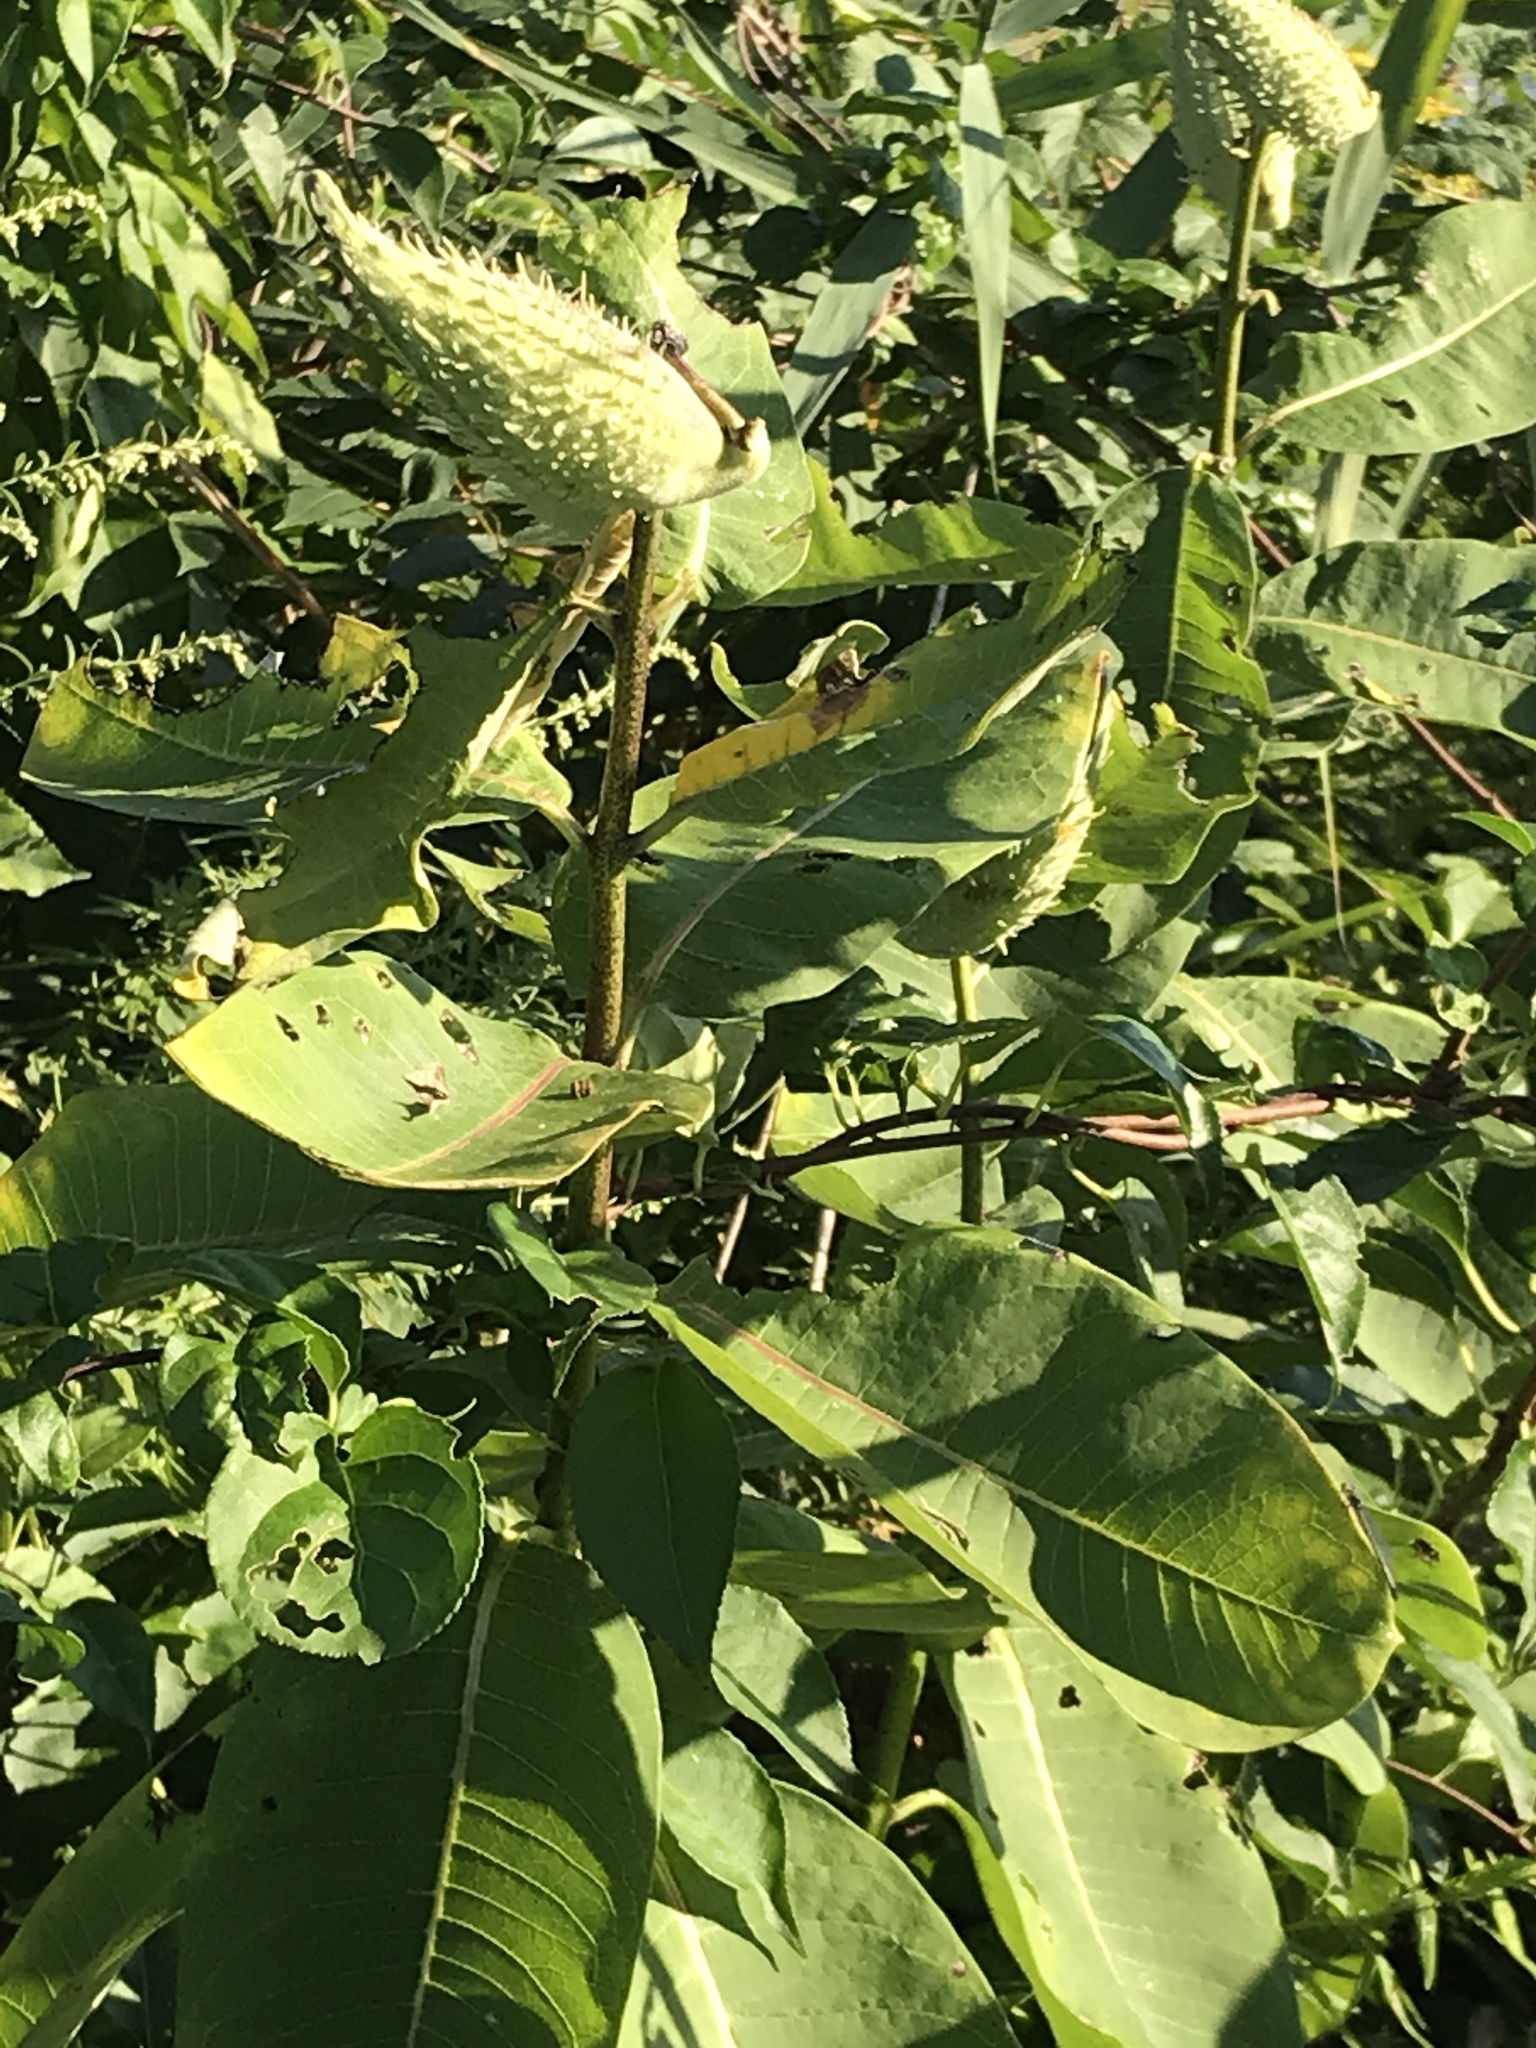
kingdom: Plantae
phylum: Tracheophyta
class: Magnoliopsida
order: Gentianales
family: Apocynaceae
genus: Asclepias
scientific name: Asclepias syriaca
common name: Common milkweed
